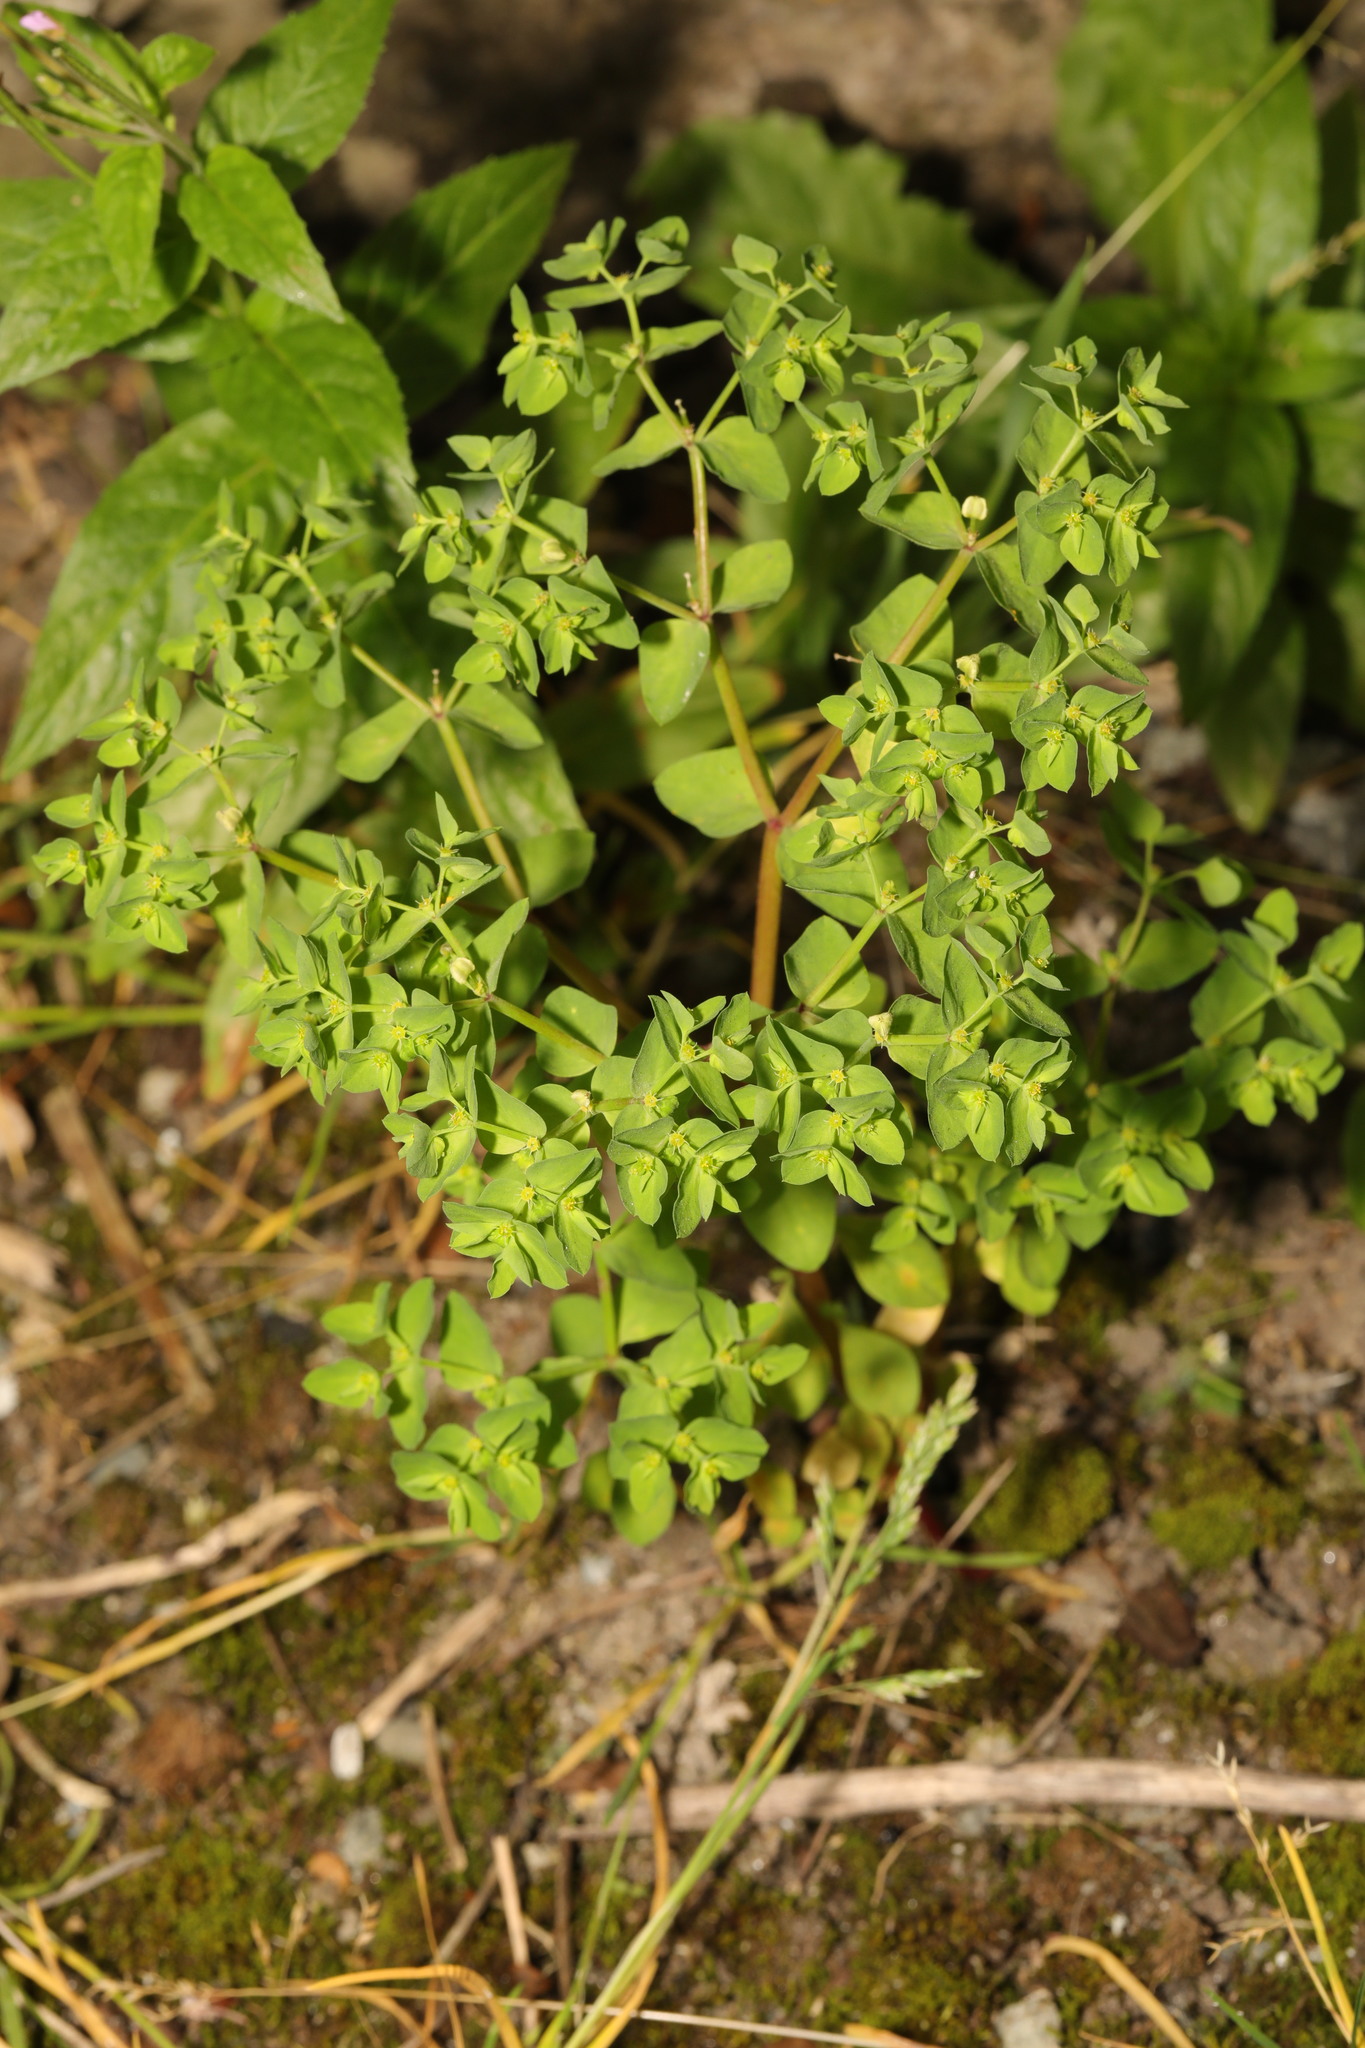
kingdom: Plantae
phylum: Tracheophyta
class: Magnoliopsida
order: Malpighiales
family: Euphorbiaceae
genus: Euphorbia
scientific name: Euphorbia peplus
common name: Petty spurge
